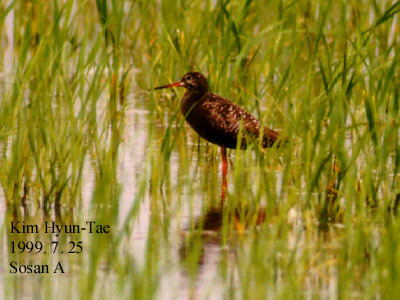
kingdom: Animalia
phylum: Chordata
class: Aves
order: Charadriiformes
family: Scolopacidae
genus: Tringa
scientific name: Tringa erythropus
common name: Spotted redshank
